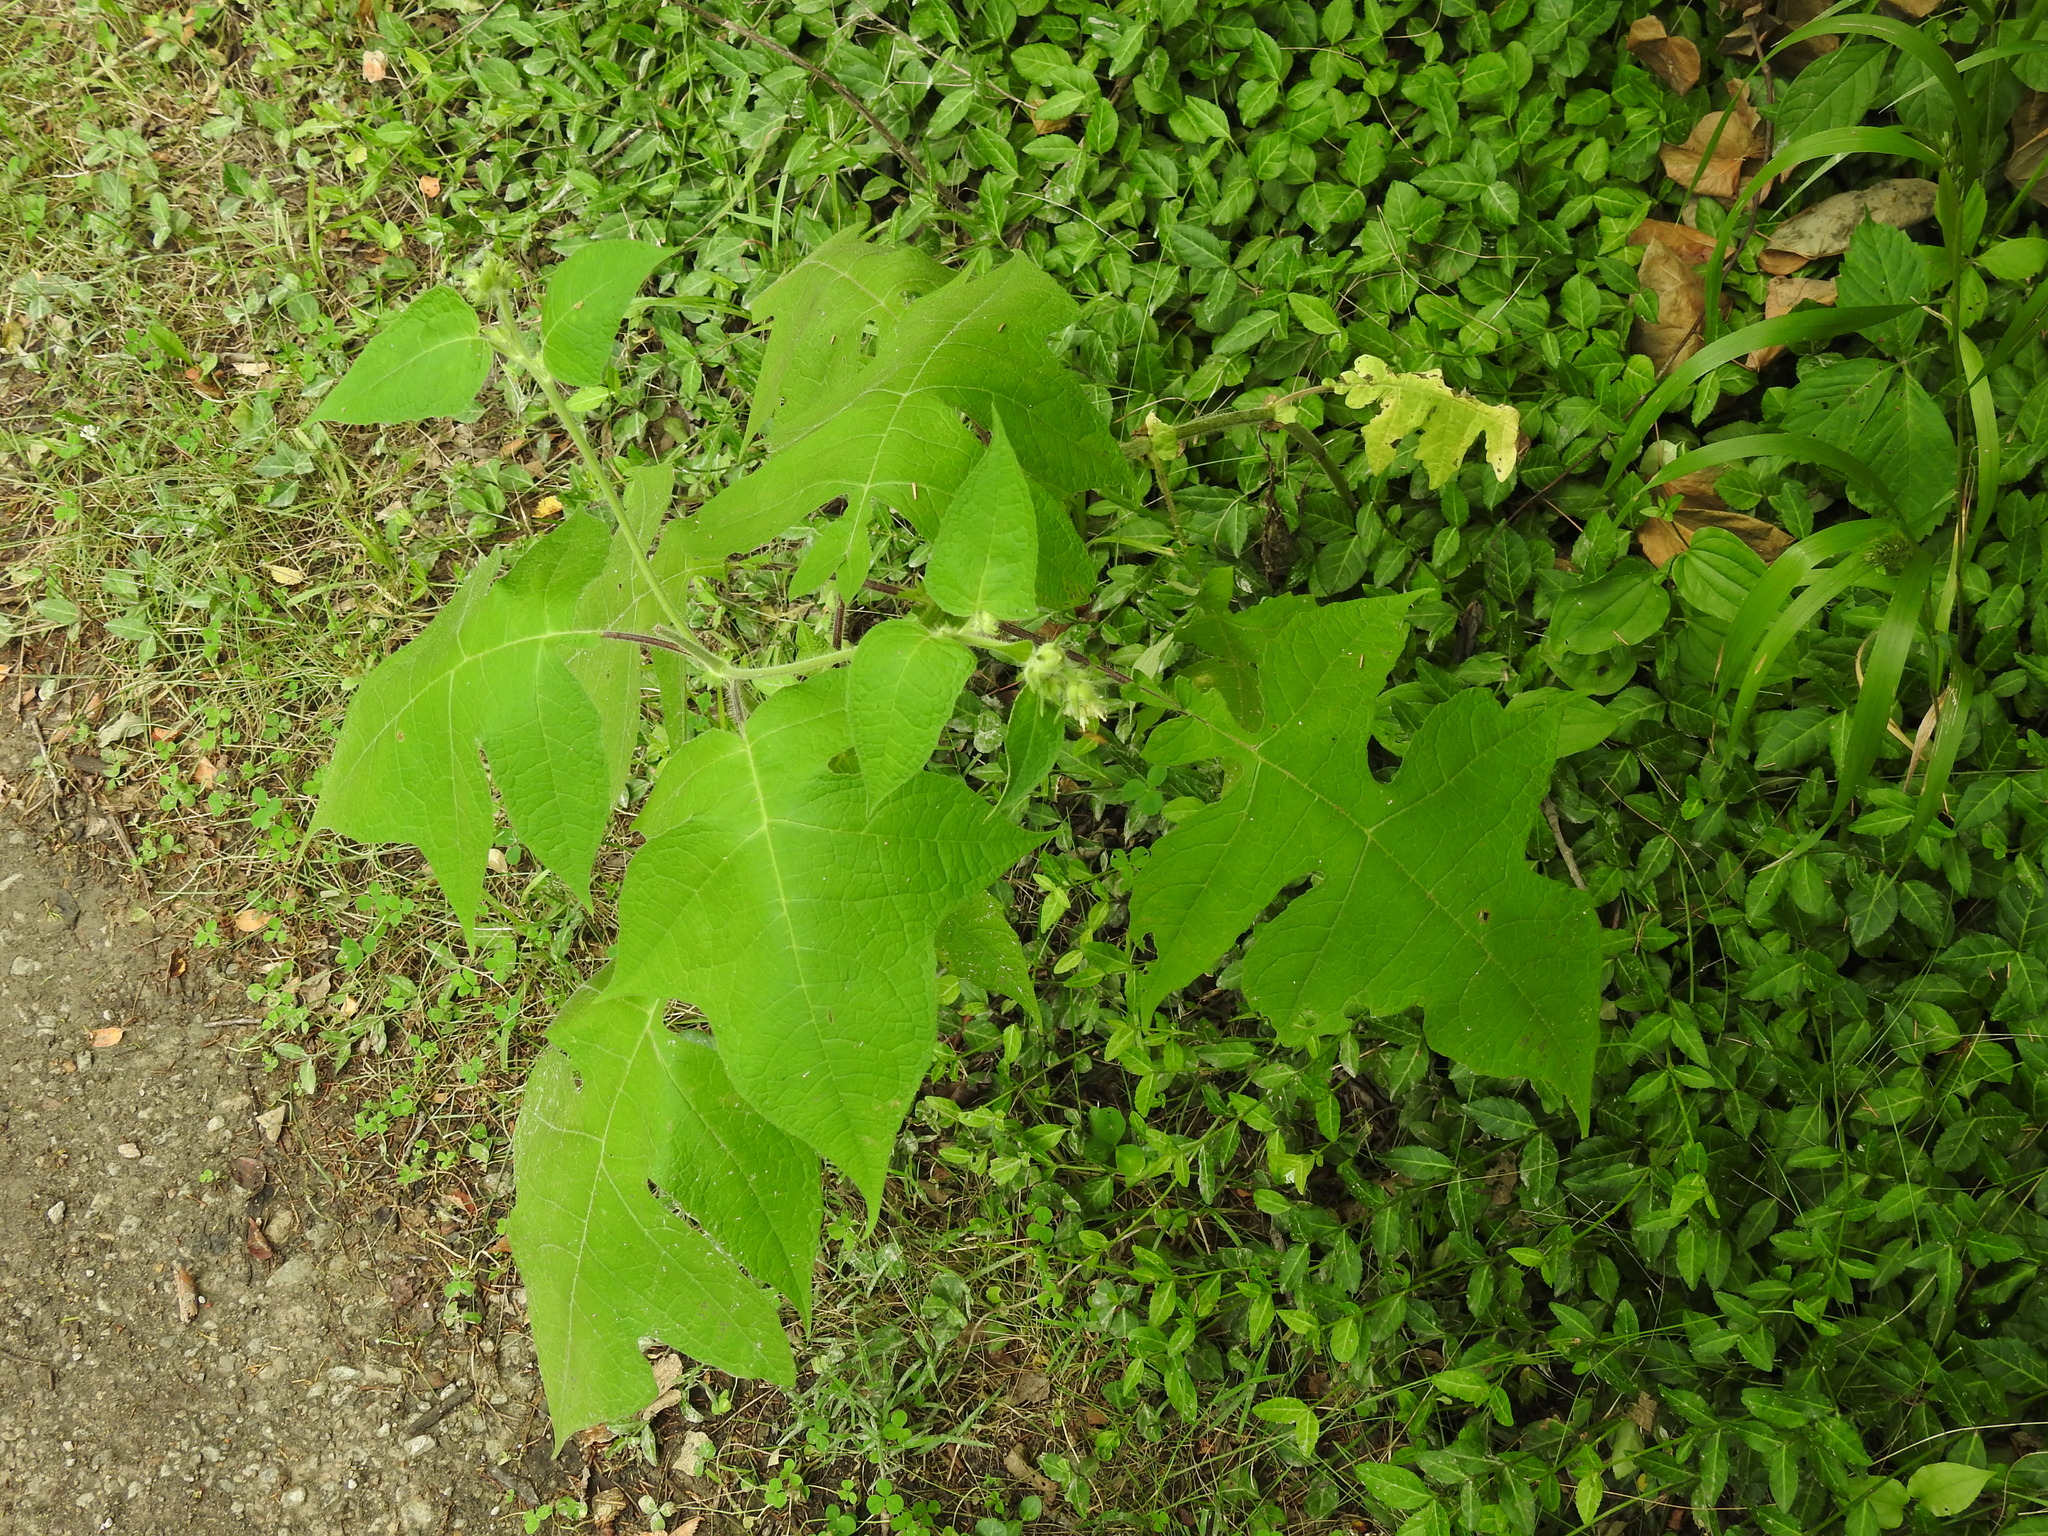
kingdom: Plantae
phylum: Tracheophyta
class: Magnoliopsida
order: Asterales
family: Asteraceae
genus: Polymnia
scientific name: Polymnia canadensis
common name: Pale-flowered leafcup
